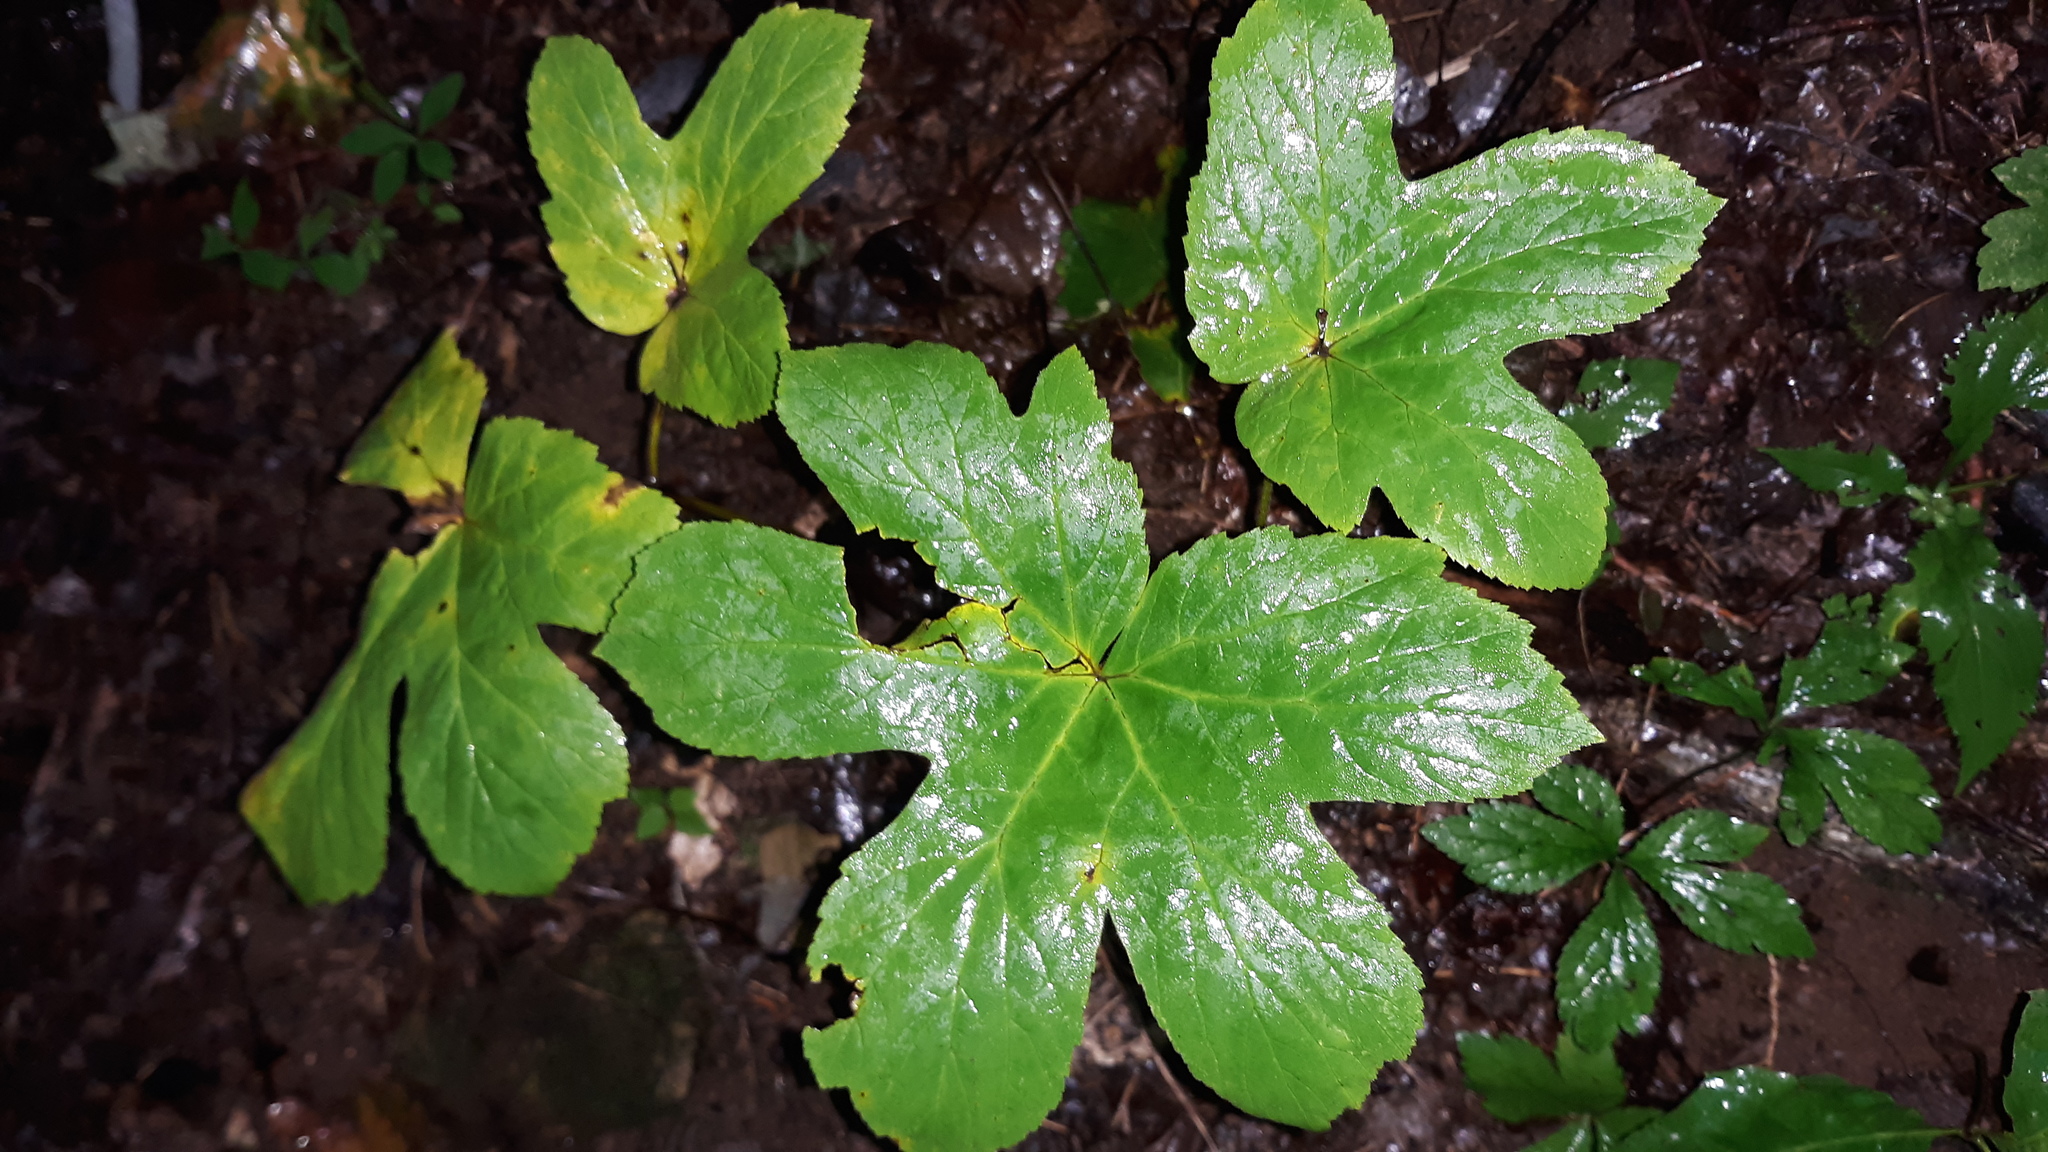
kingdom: Plantae
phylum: Tracheophyta
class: Magnoliopsida
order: Ranunculales
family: Ranunculaceae
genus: Hydrastis
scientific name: Hydrastis canadensis
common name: Goldenseal
